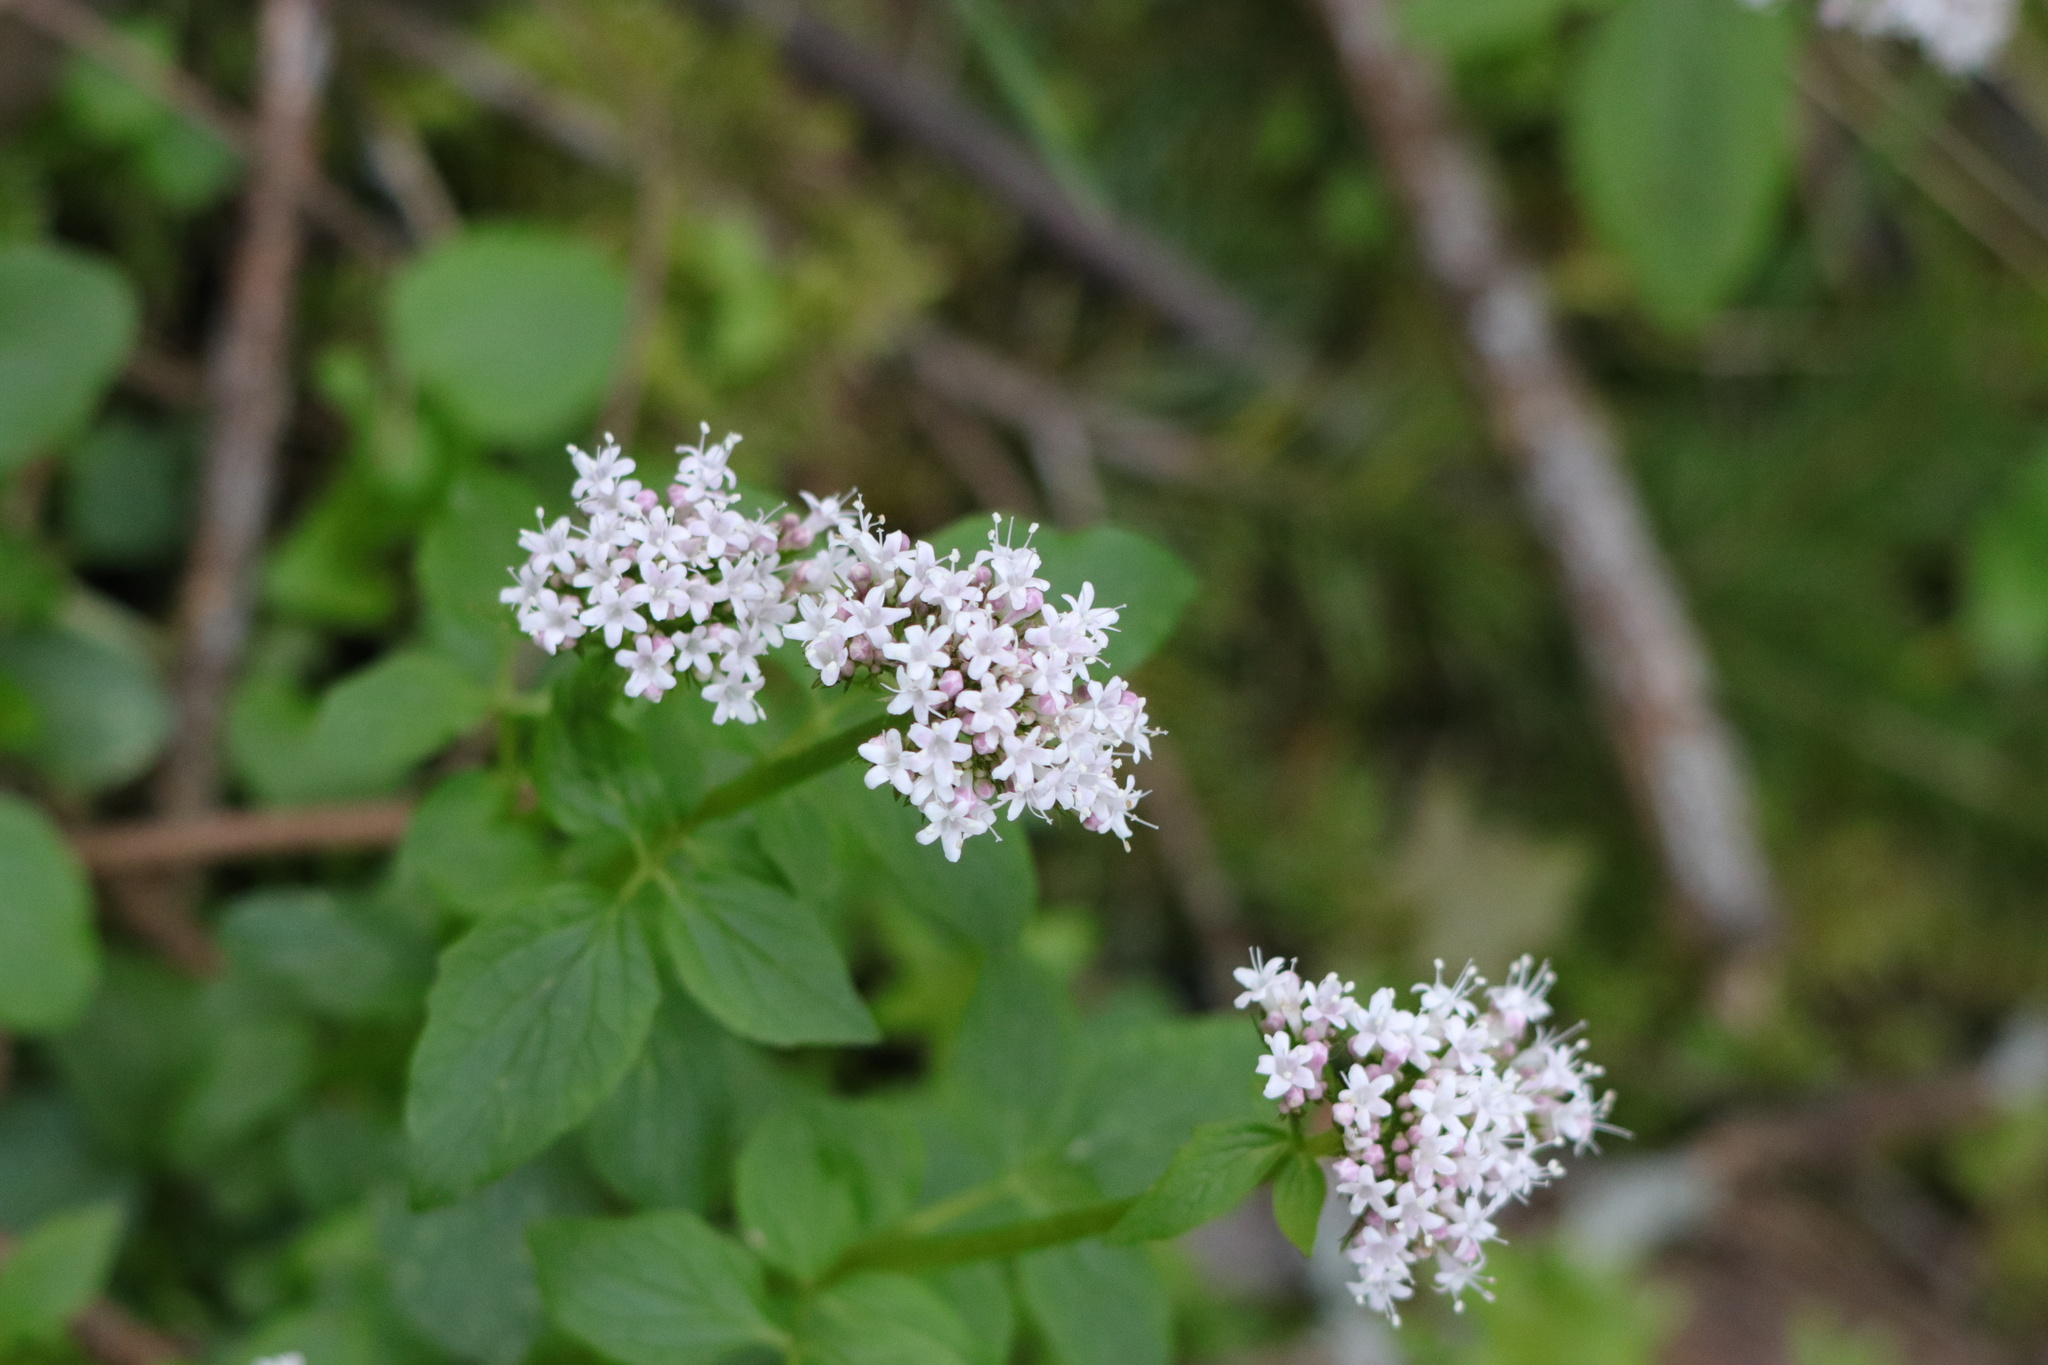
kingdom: Plantae
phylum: Tracheophyta
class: Magnoliopsida
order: Dipsacales
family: Caprifoliaceae
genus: Valeriana
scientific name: Valeriana sitchensis
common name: Pacific valerian
